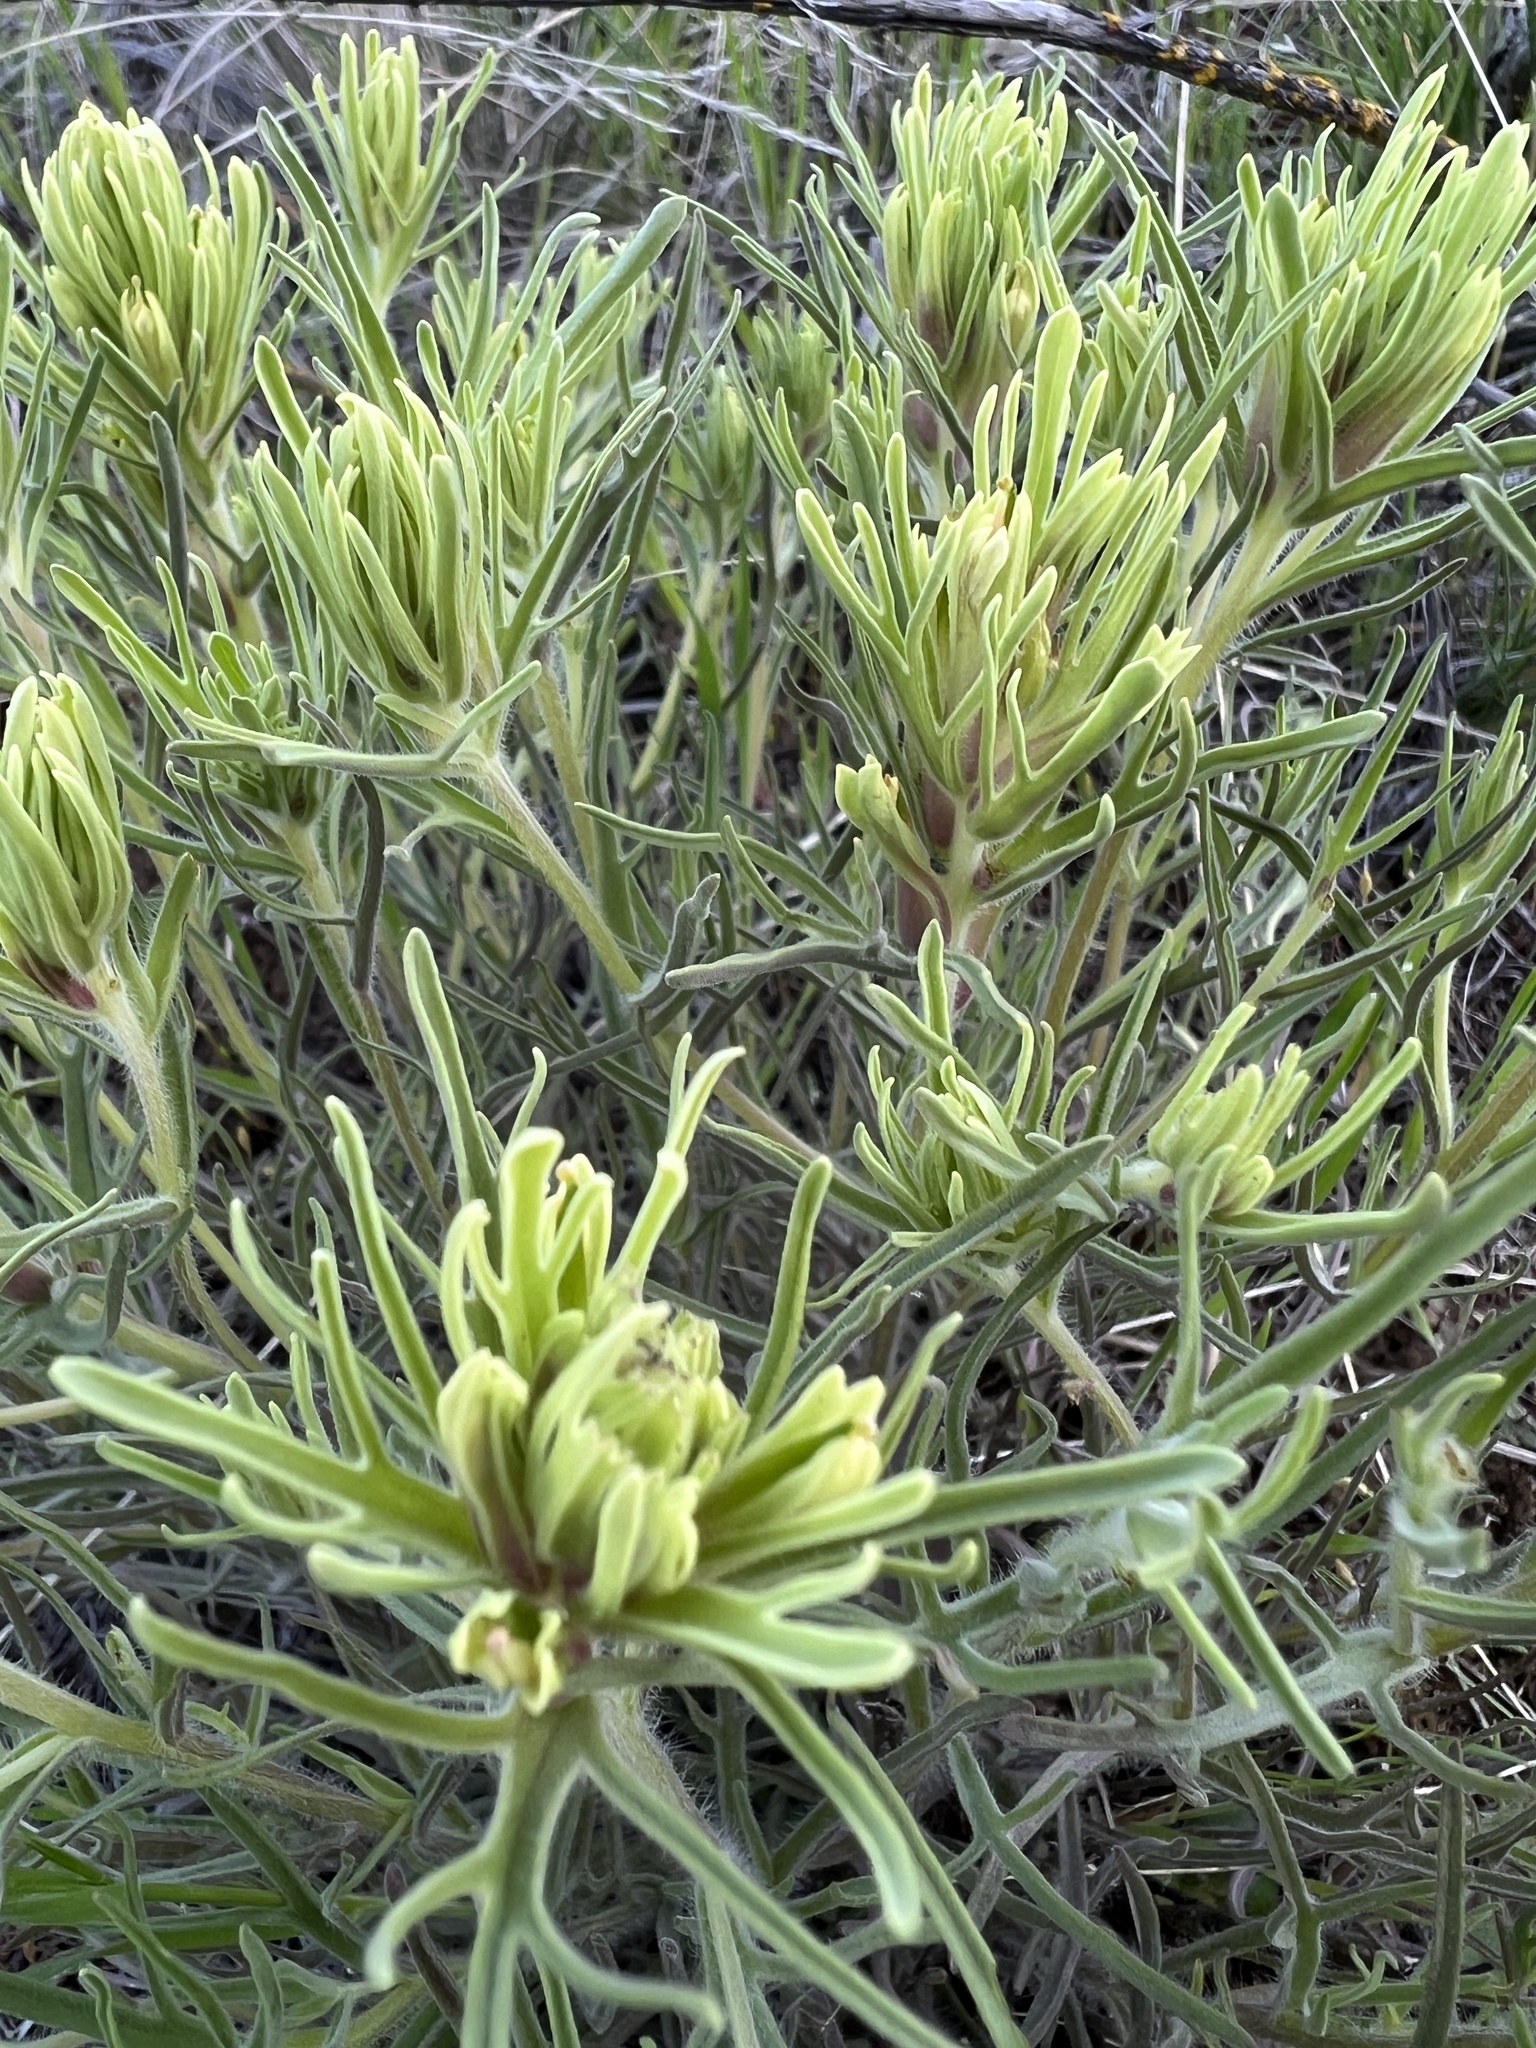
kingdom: Plantae
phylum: Tracheophyta
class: Magnoliopsida
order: Lamiales
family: Orobanchaceae
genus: Castilleja
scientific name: Castilleja thompsonii
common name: Thompson's paintbrush
